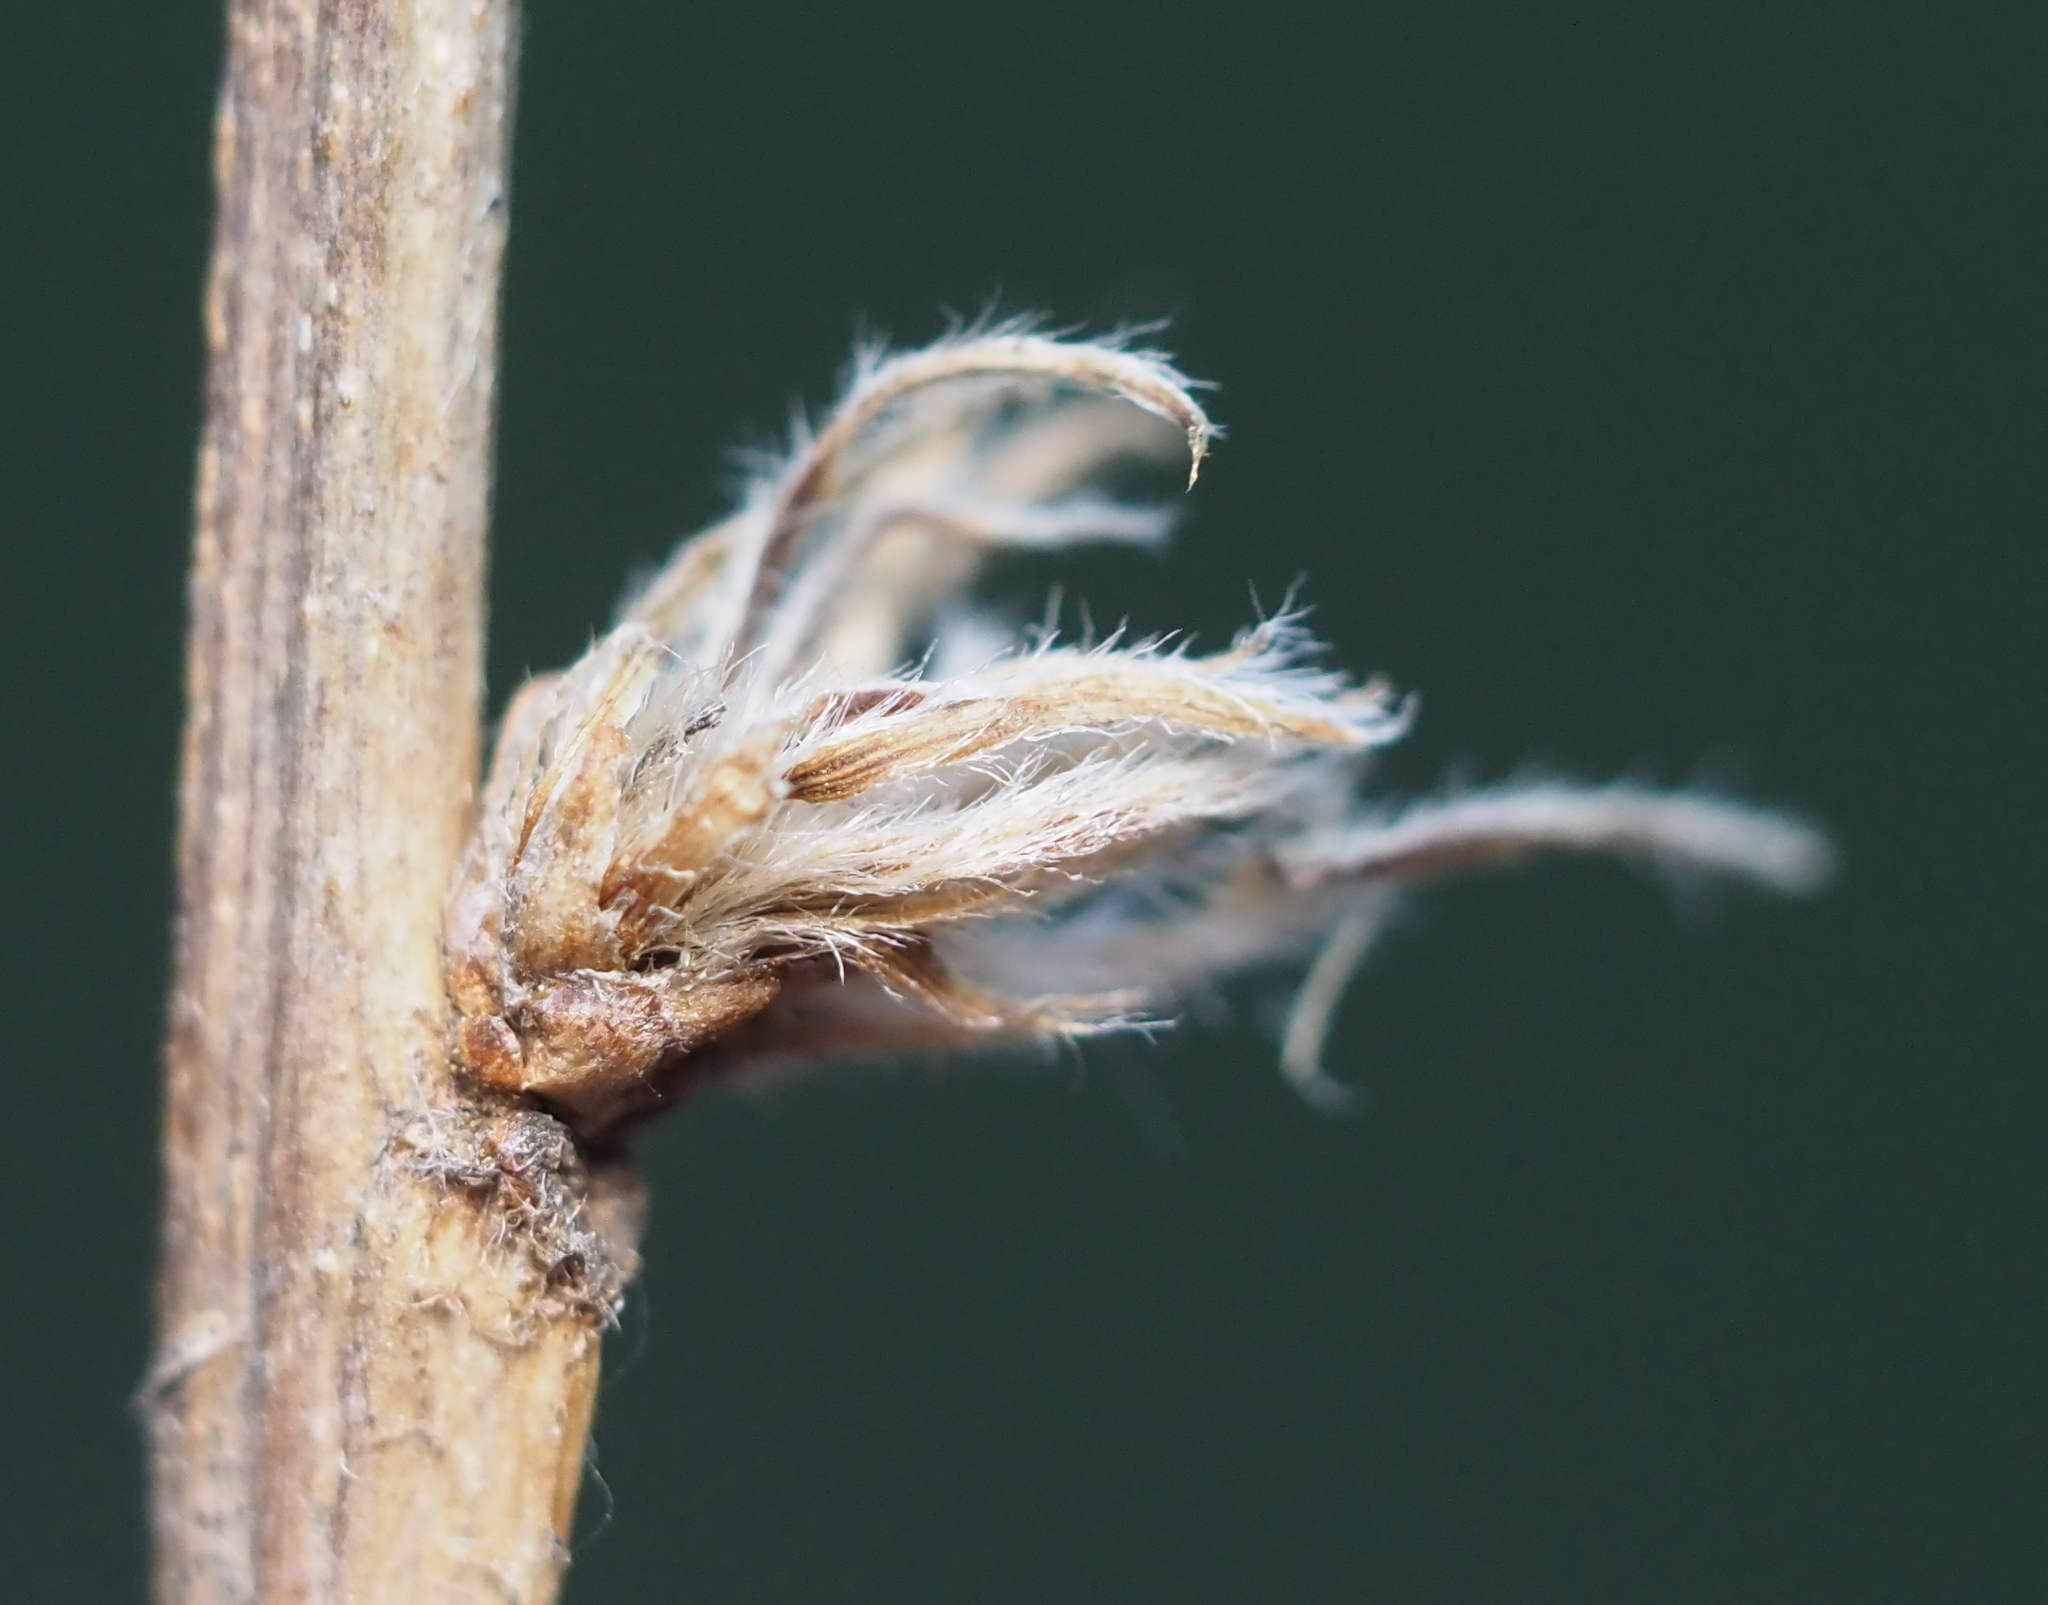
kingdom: Animalia
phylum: Arthropoda
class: Insecta
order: Hymenoptera
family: Cynipidae
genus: Andricus
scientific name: Andricus
